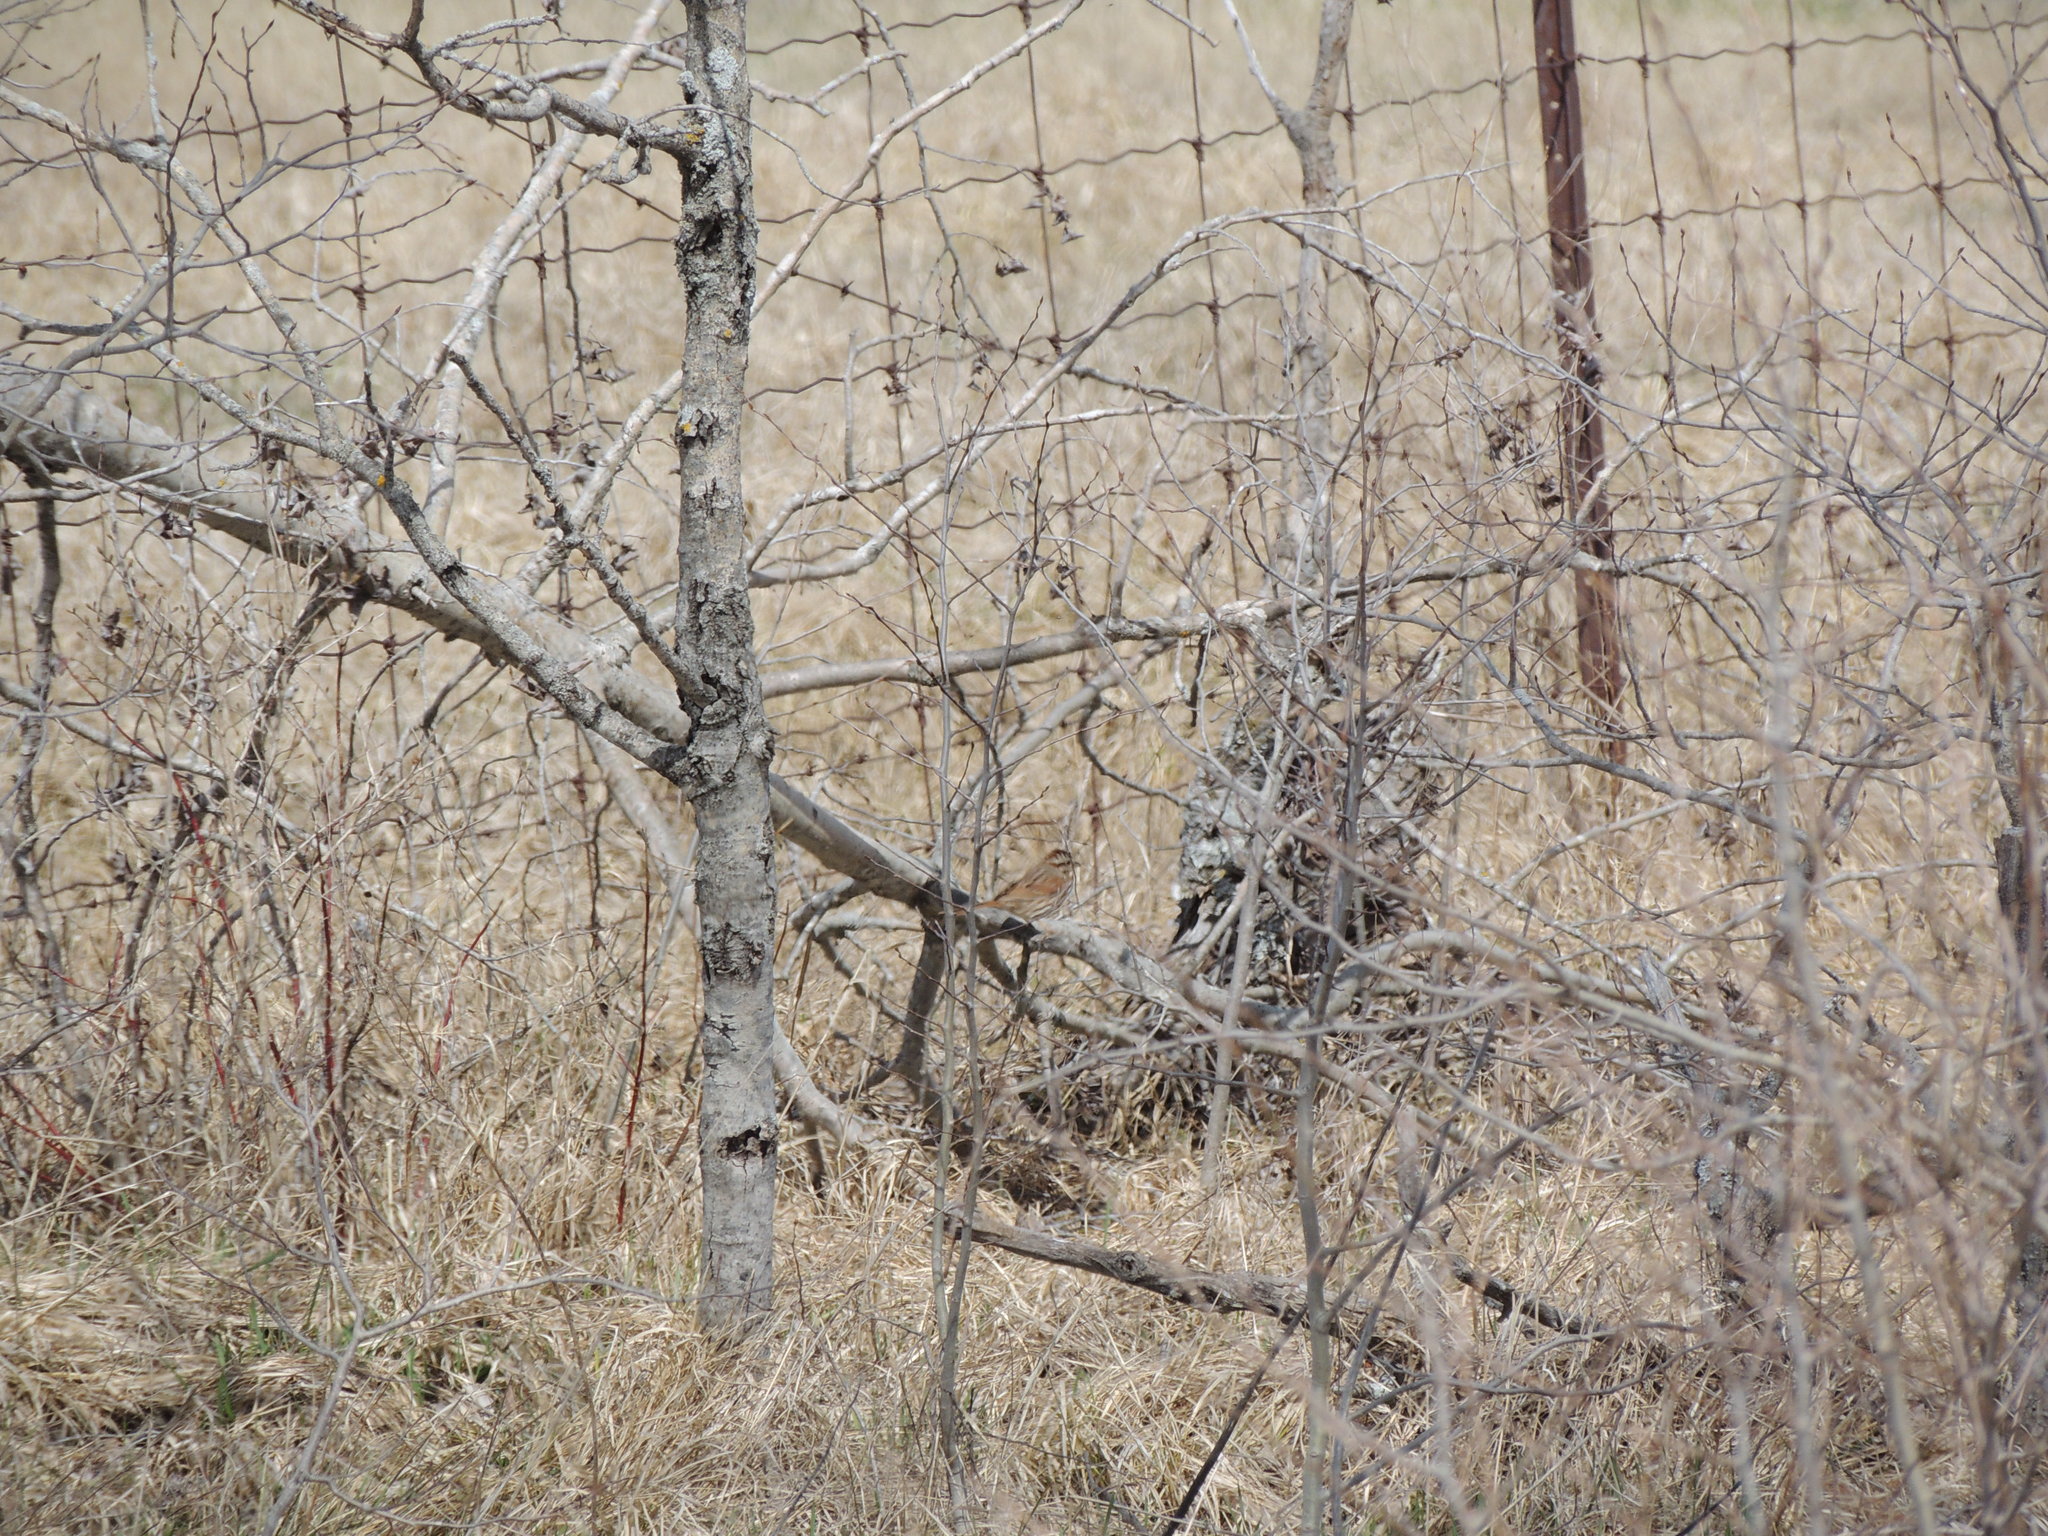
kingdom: Animalia
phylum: Chordata
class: Aves
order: Passeriformes
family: Passerellidae
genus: Melospiza
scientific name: Melospiza melodia
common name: Song sparrow
